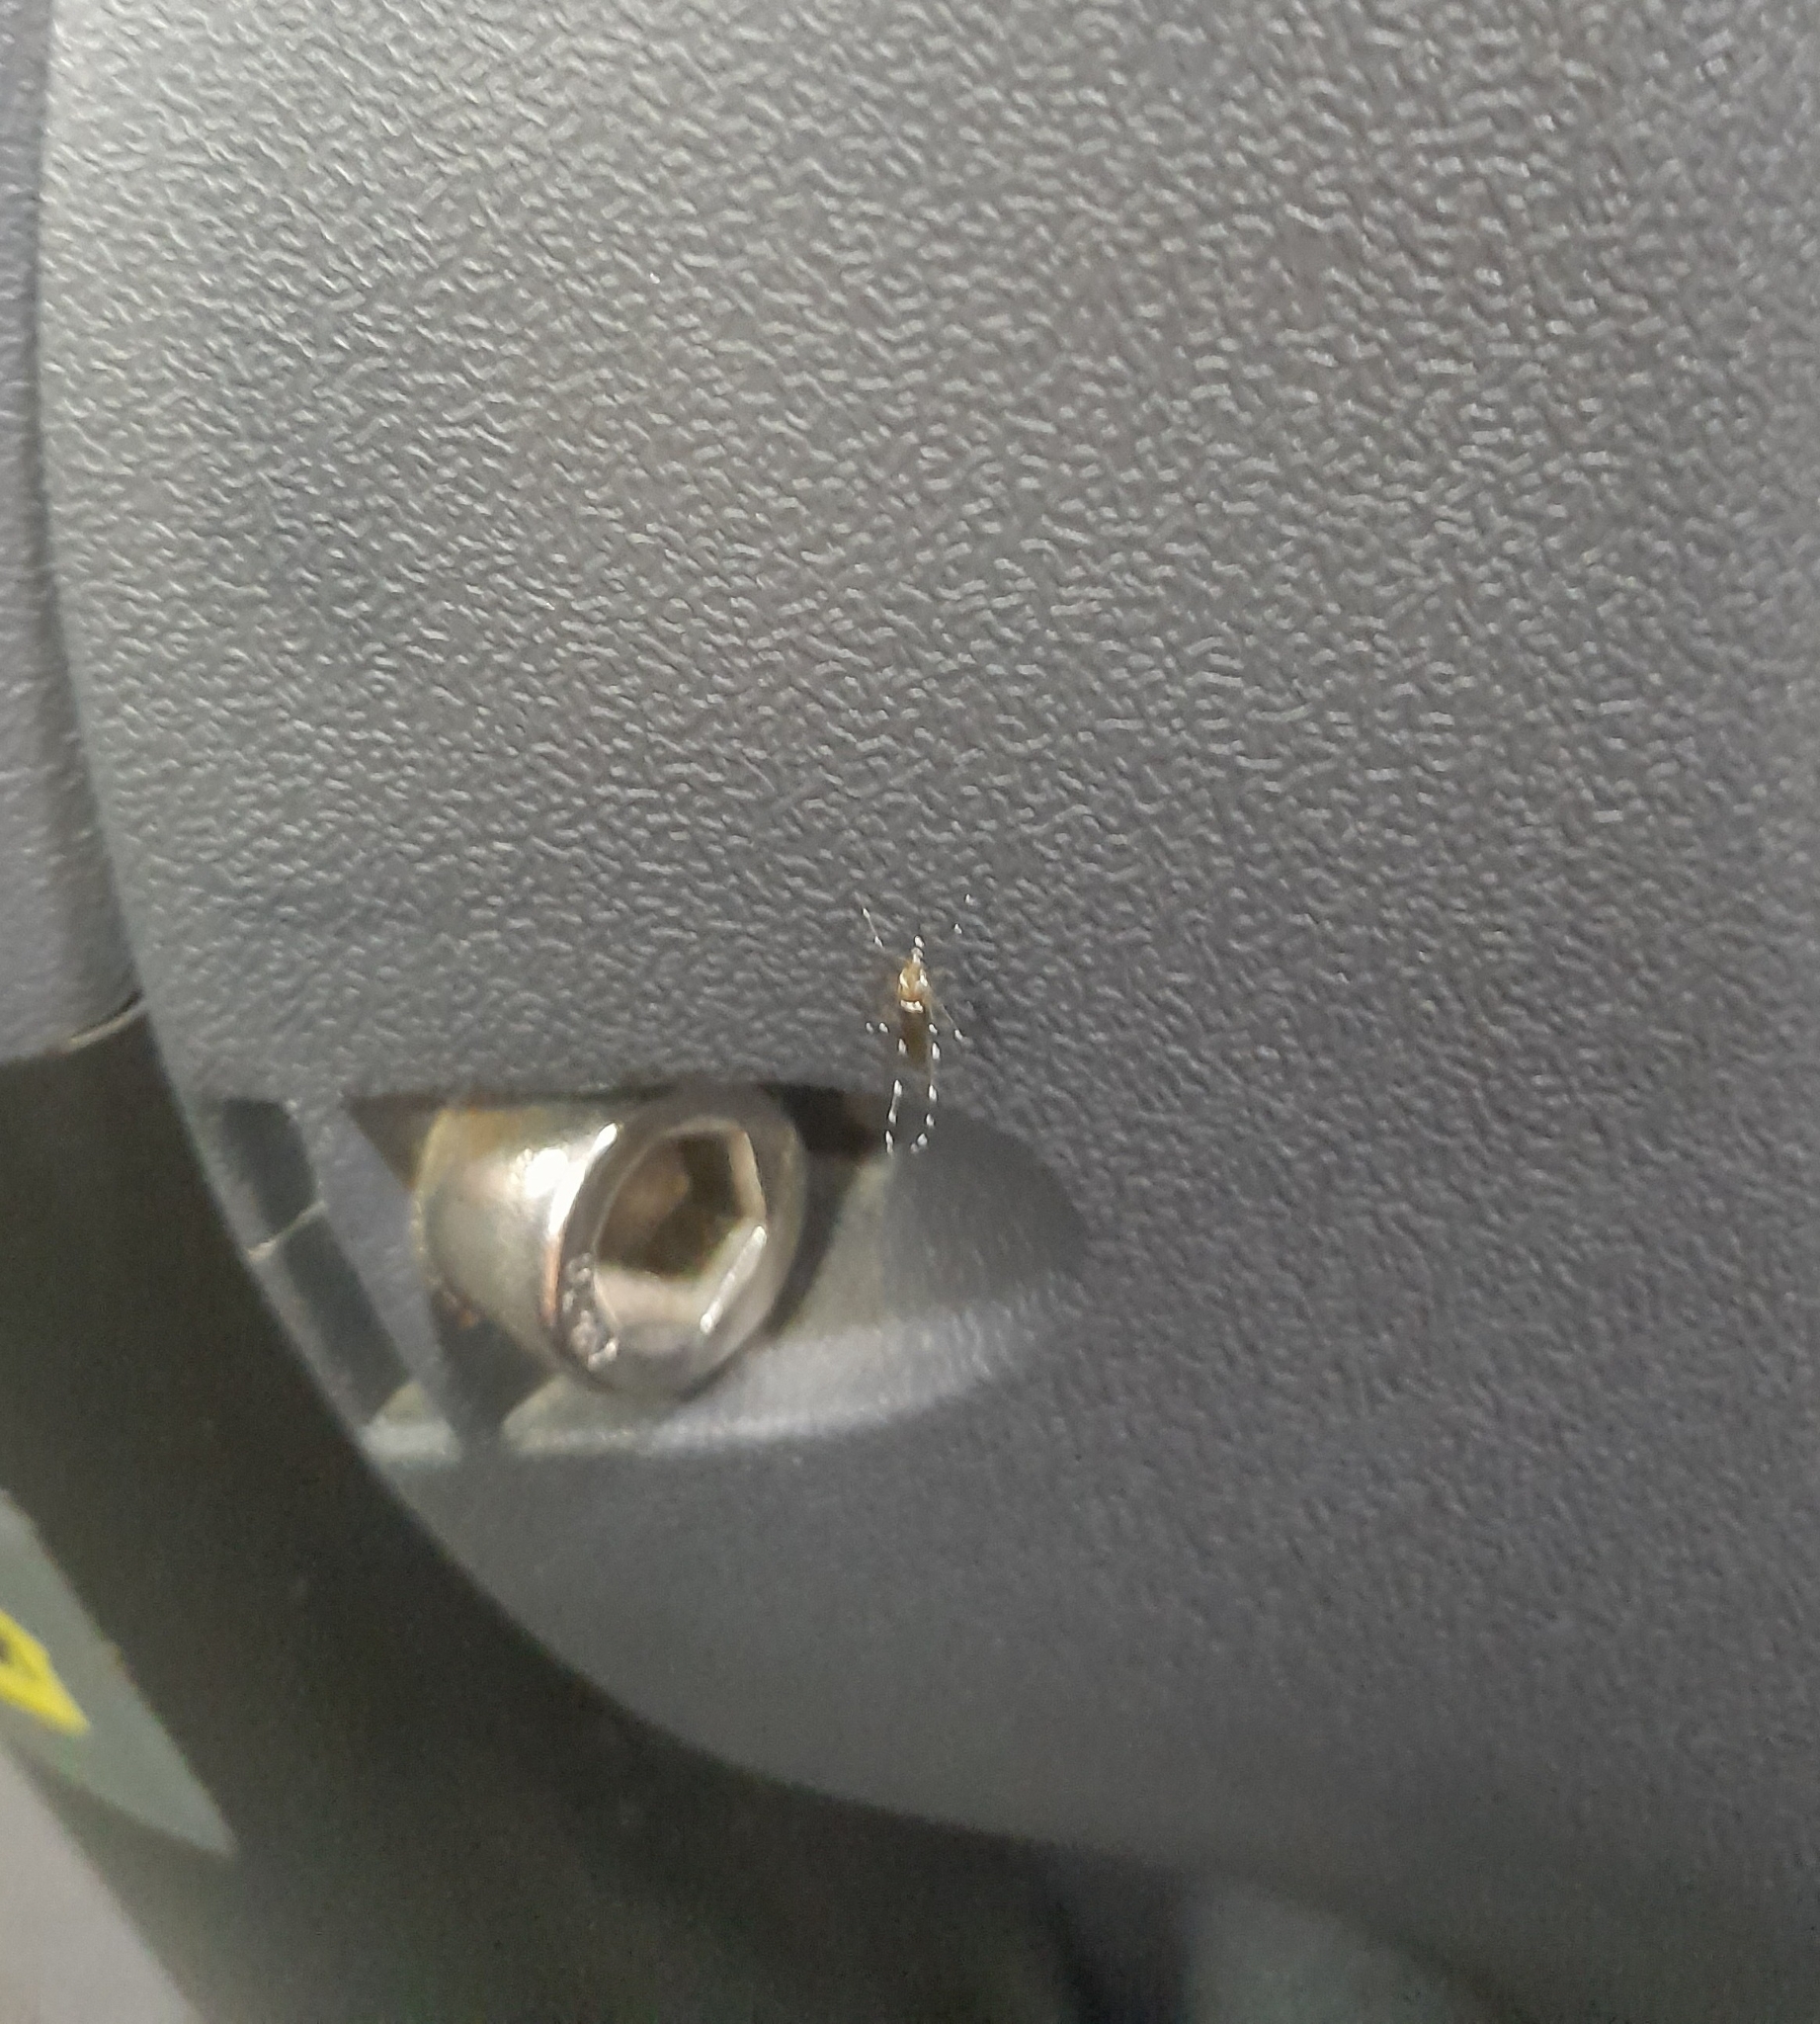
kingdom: Animalia
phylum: Arthropoda
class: Insecta
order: Diptera
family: Culicidae
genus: Aedes
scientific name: Aedes aegypti
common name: Yellow fever mosquito
